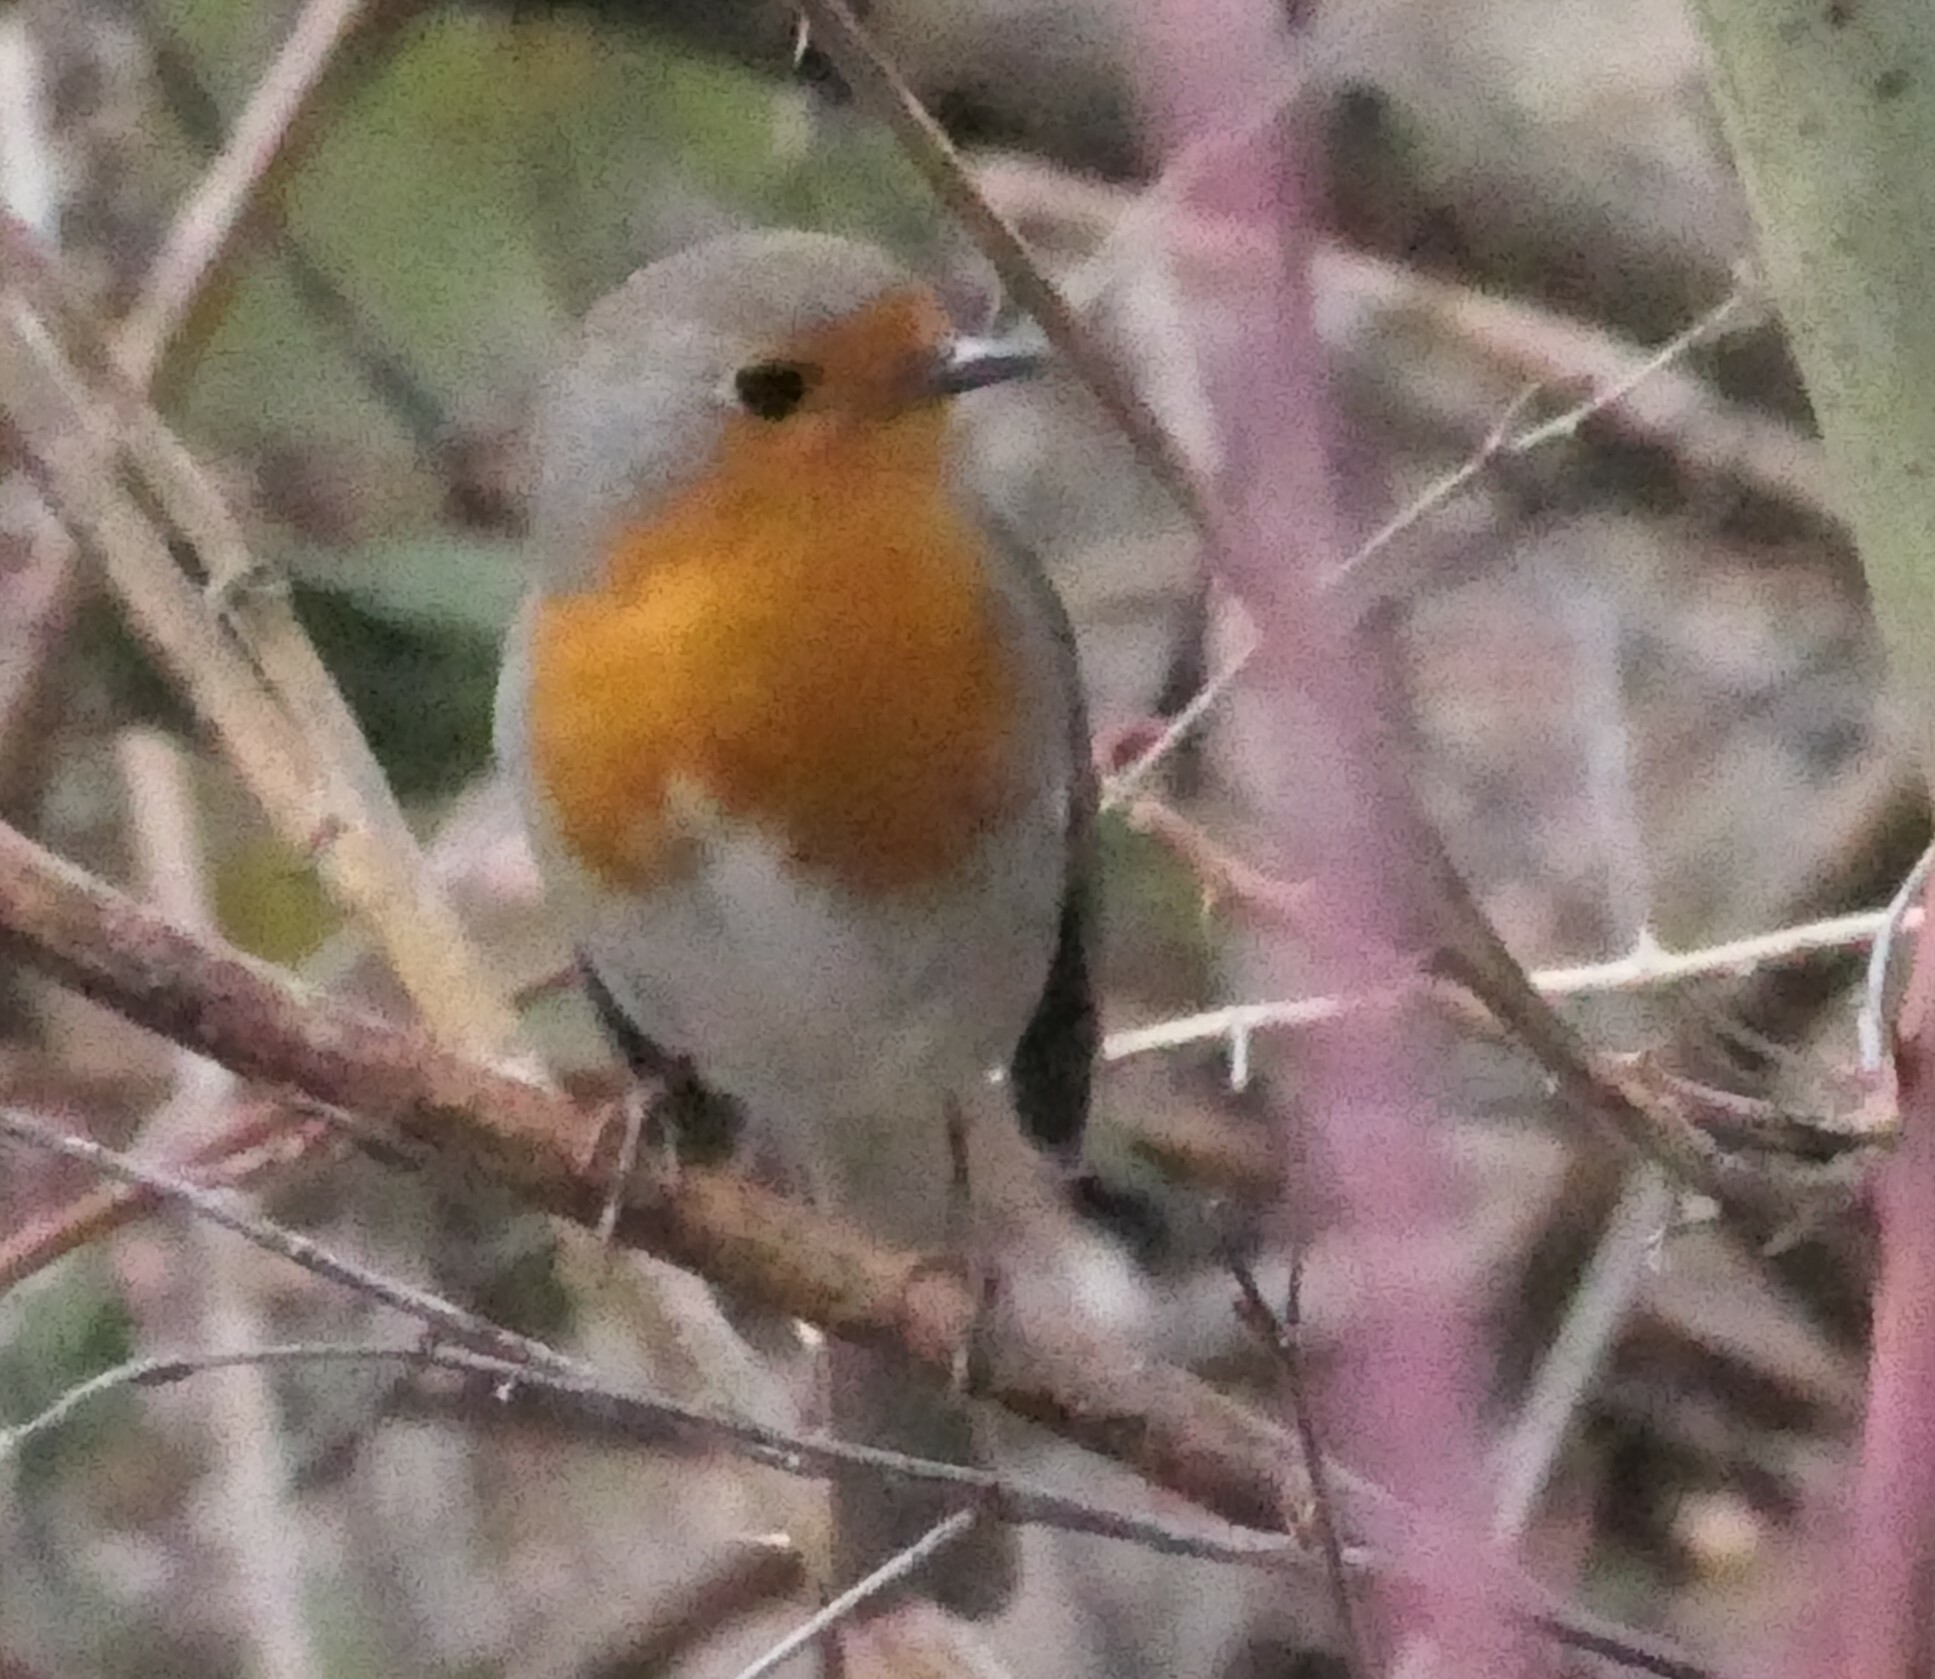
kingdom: Animalia
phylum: Chordata
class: Aves
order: Passeriformes
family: Muscicapidae
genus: Erithacus
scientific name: Erithacus rubecula
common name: European robin
